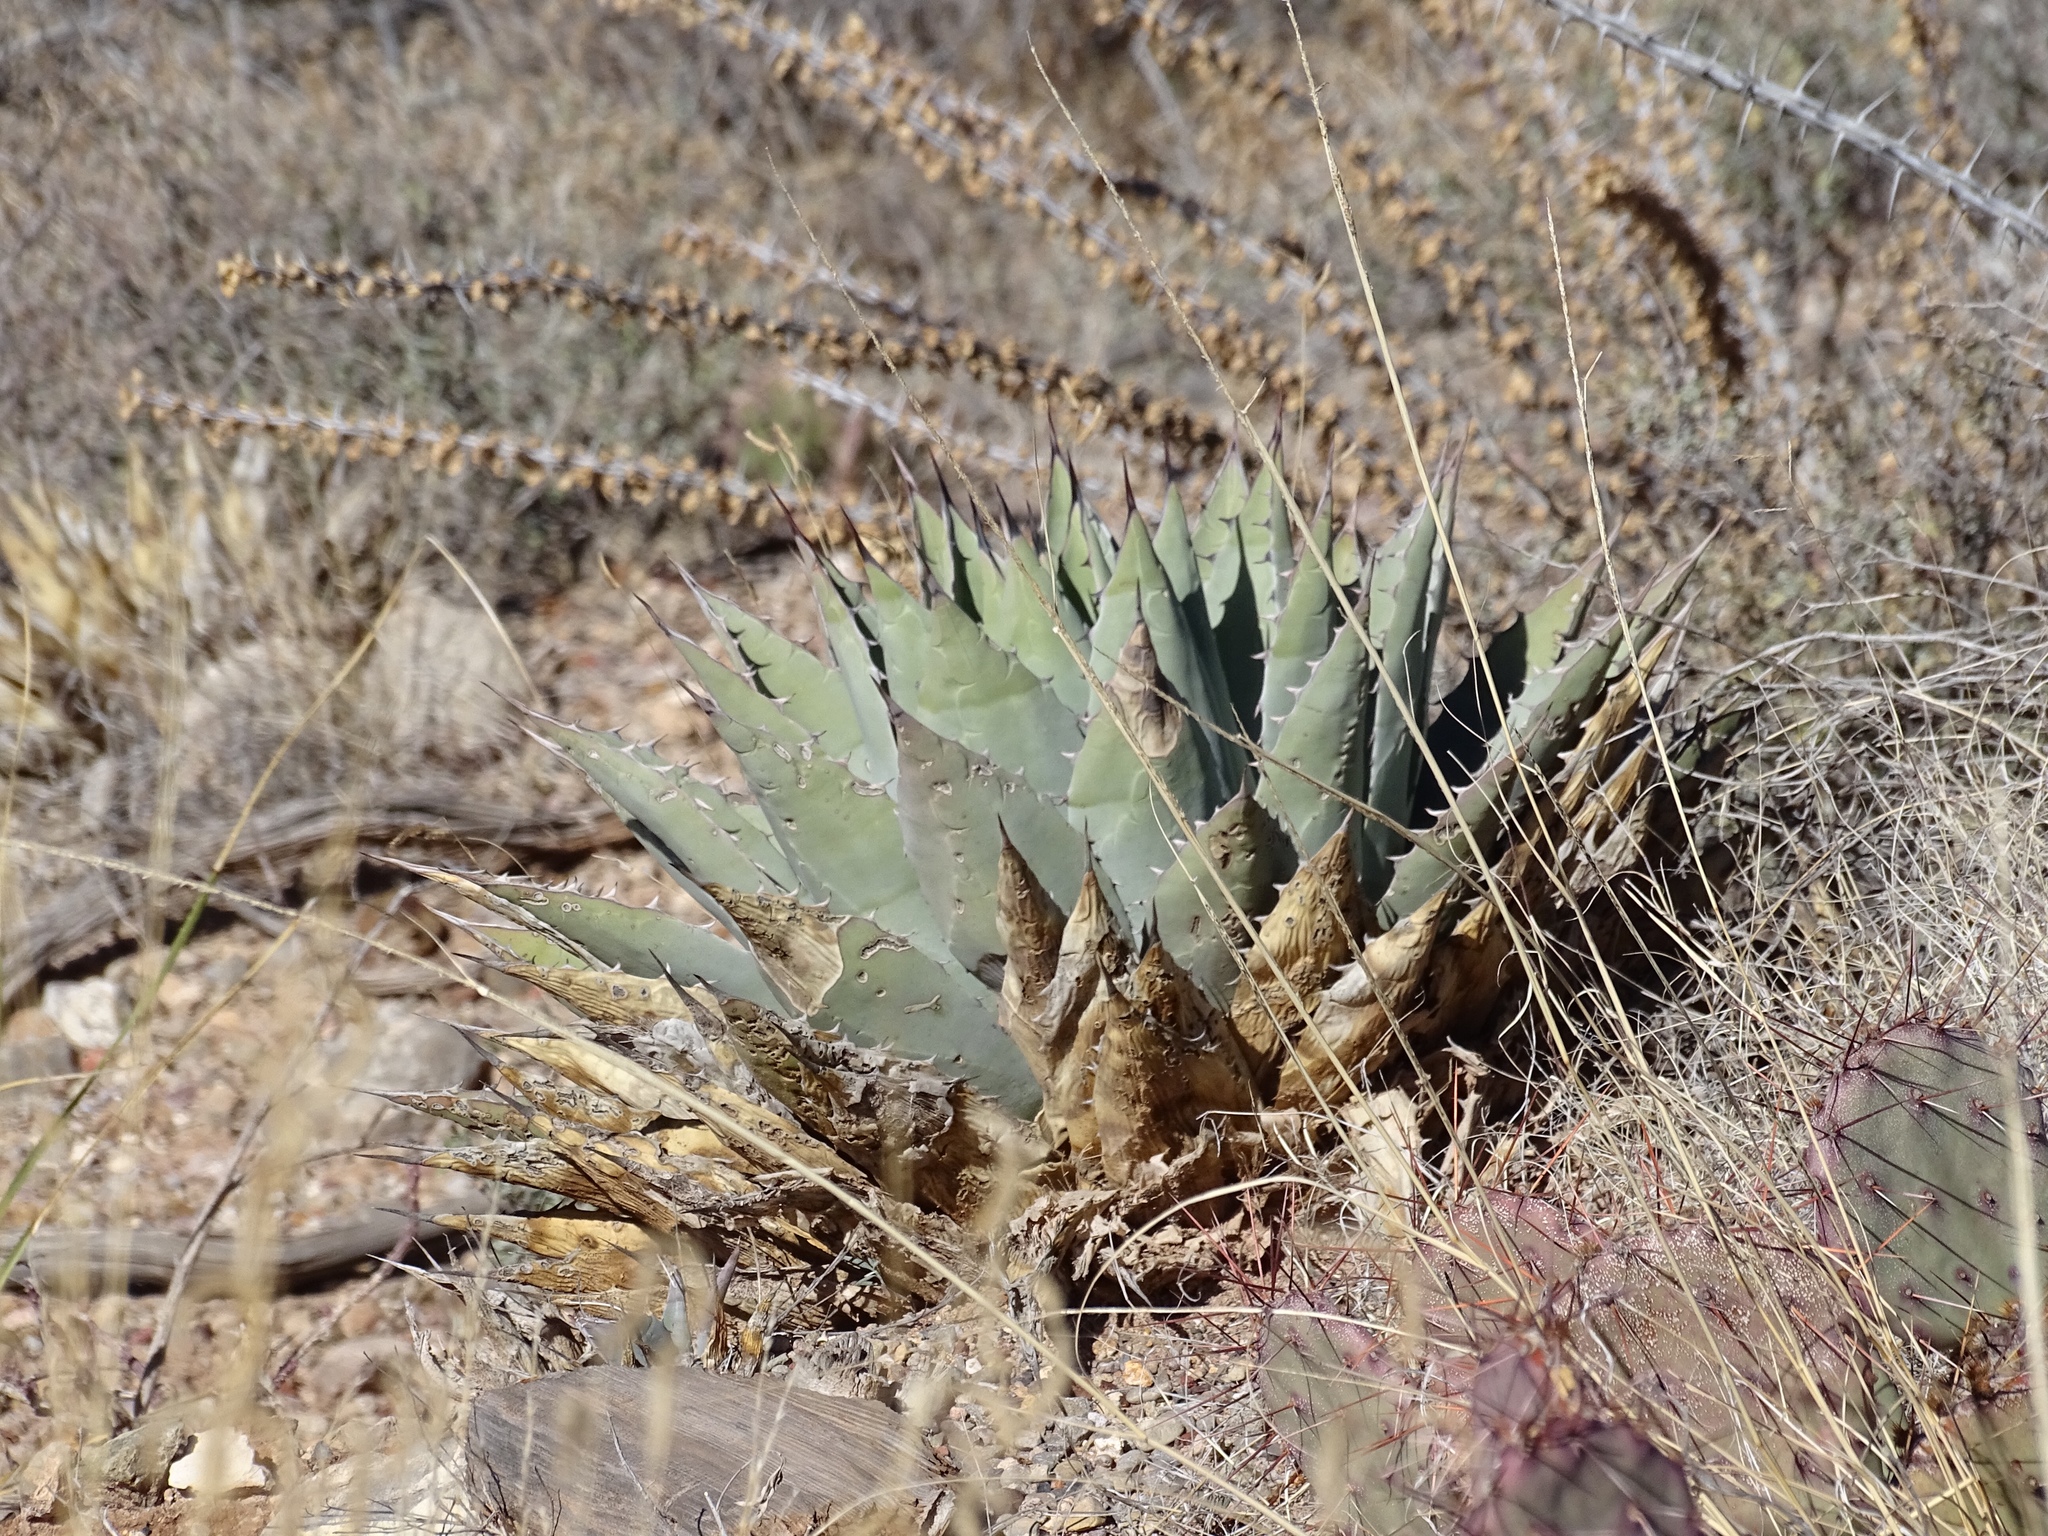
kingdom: Plantae
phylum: Tracheophyta
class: Liliopsida
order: Asparagales
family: Asparagaceae
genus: Agave
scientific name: Agave parryi
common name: Parry's agave
